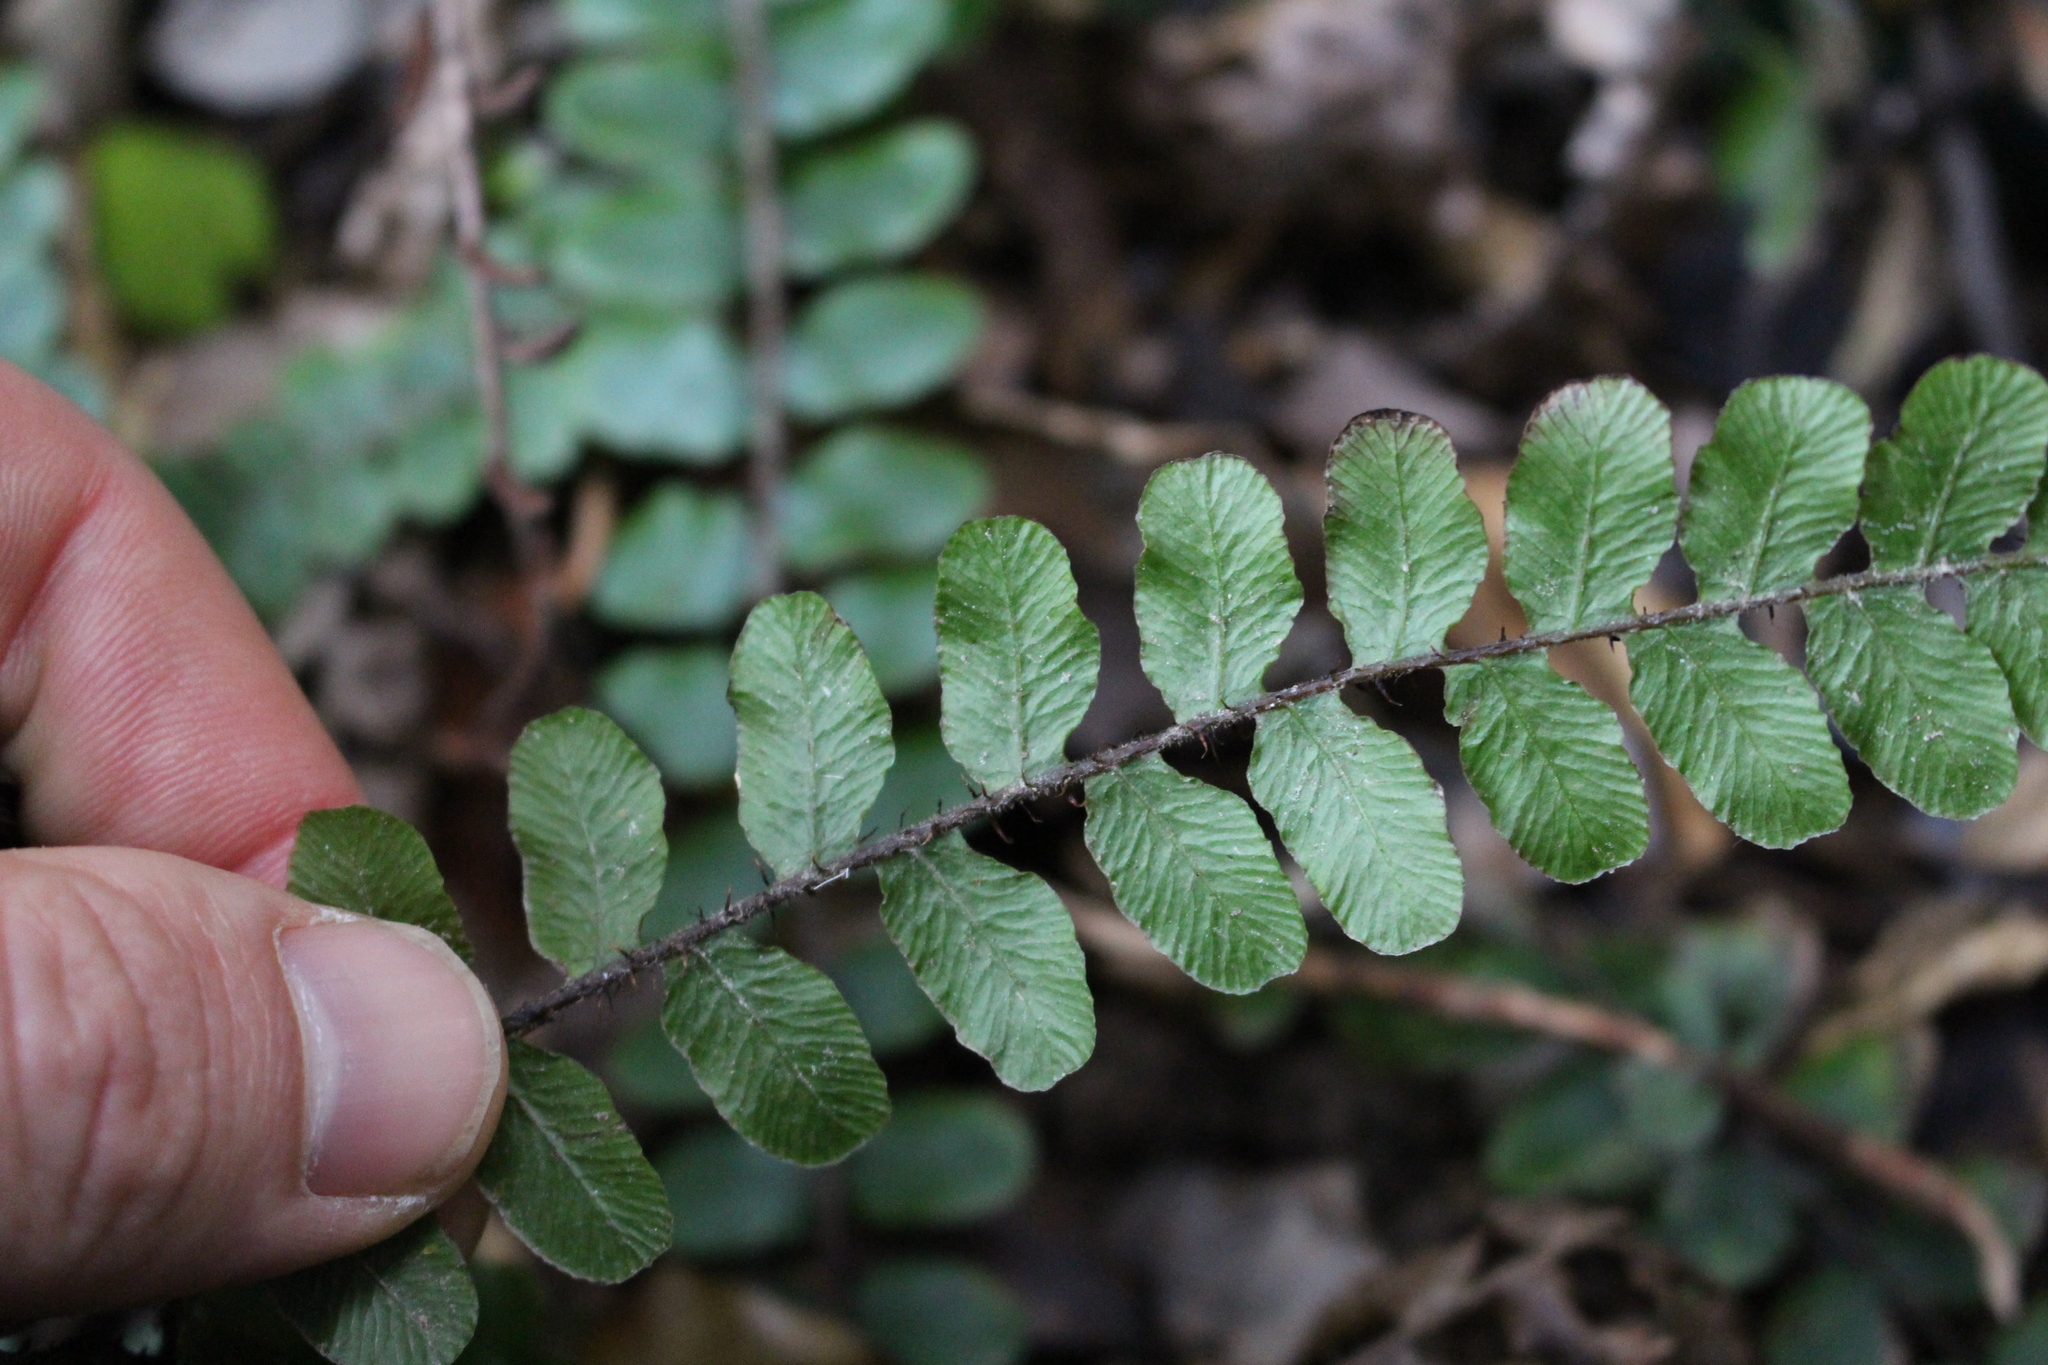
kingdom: Plantae
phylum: Tracheophyta
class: Polypodiopsida
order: Polypodiales
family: Blechnaceae
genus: Cranfillia
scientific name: Cranfillia fluviatilis
